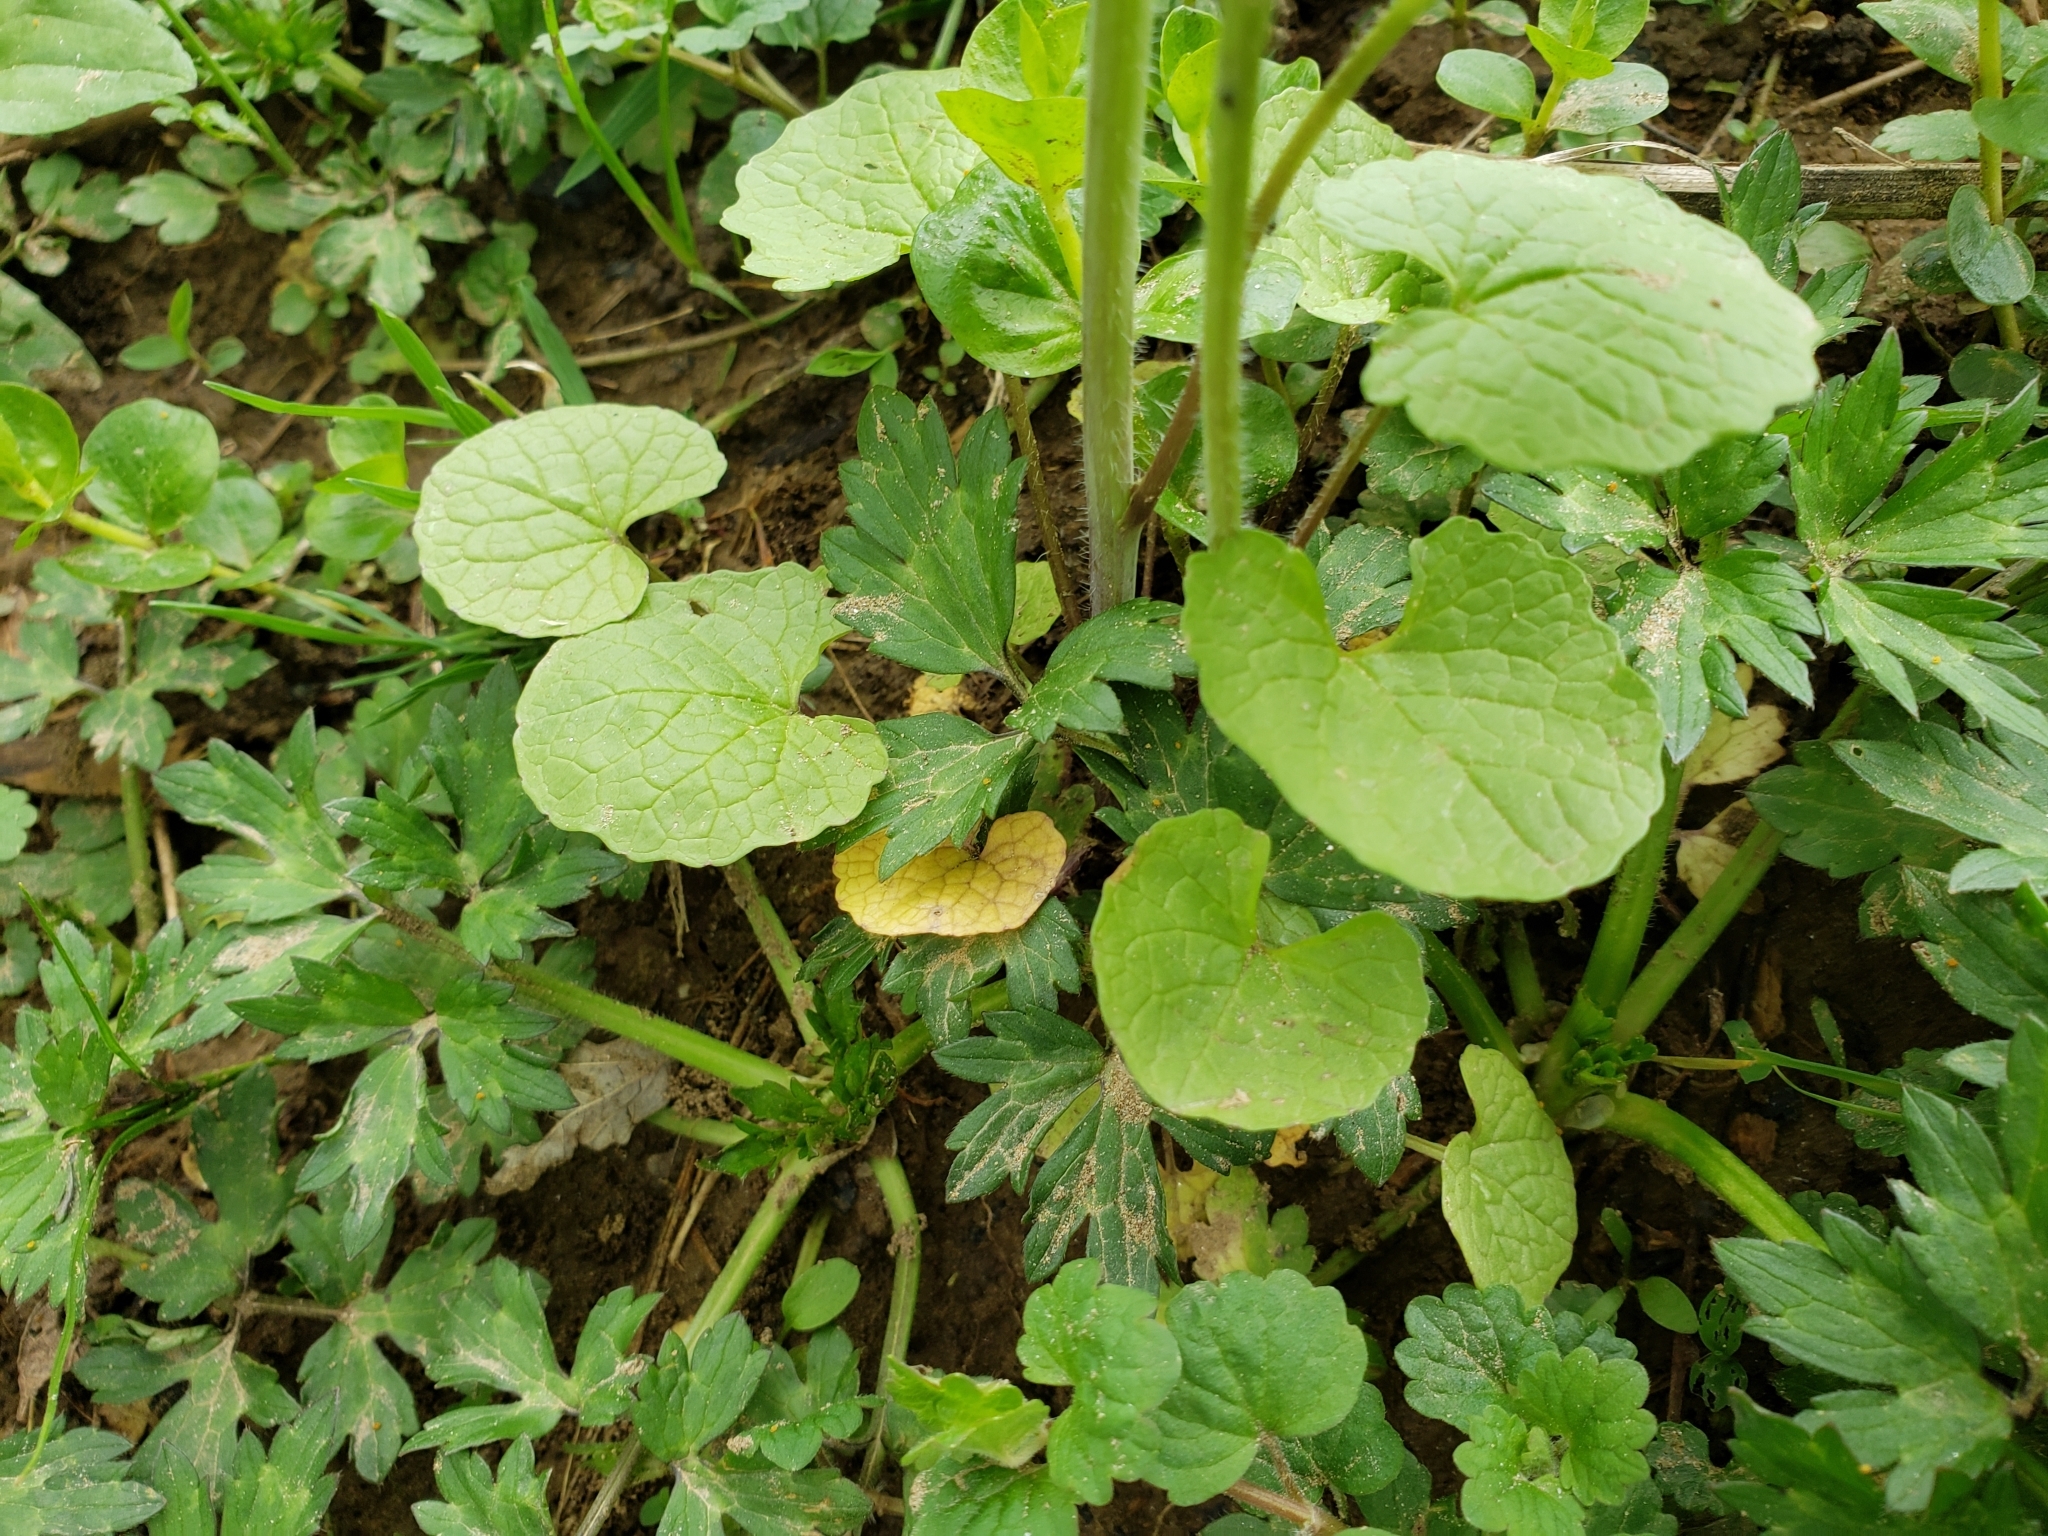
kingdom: Plantae
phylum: Tracheophyta
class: Magnoliopsida
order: Brassicales
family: Brassicaceae
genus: Alliaria
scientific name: Alliaria petiolata
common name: Garlic mustard
